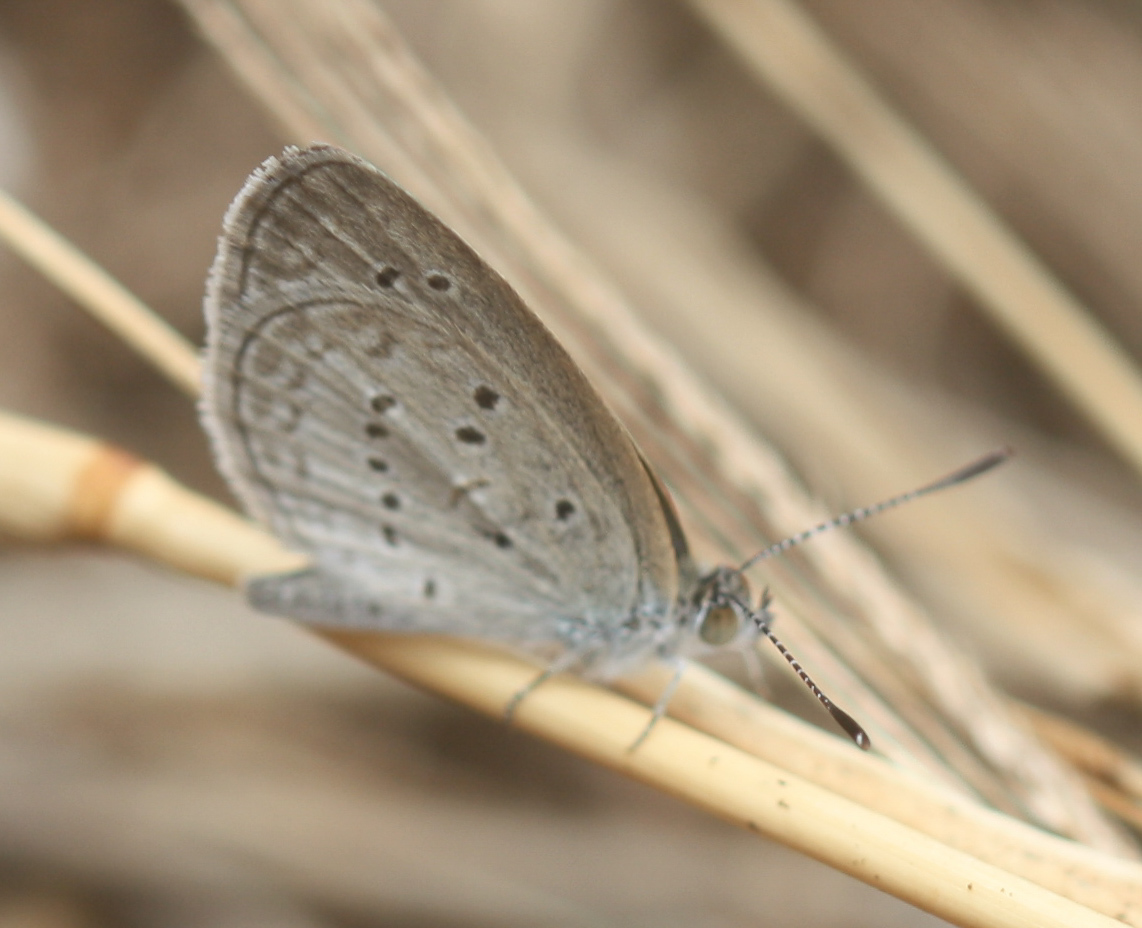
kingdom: Animalia
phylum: Arthropoda
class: Insecta
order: Lepidoptera
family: Lycaenidae
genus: Zizina
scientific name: Zizina otis
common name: Lesser grass blue
